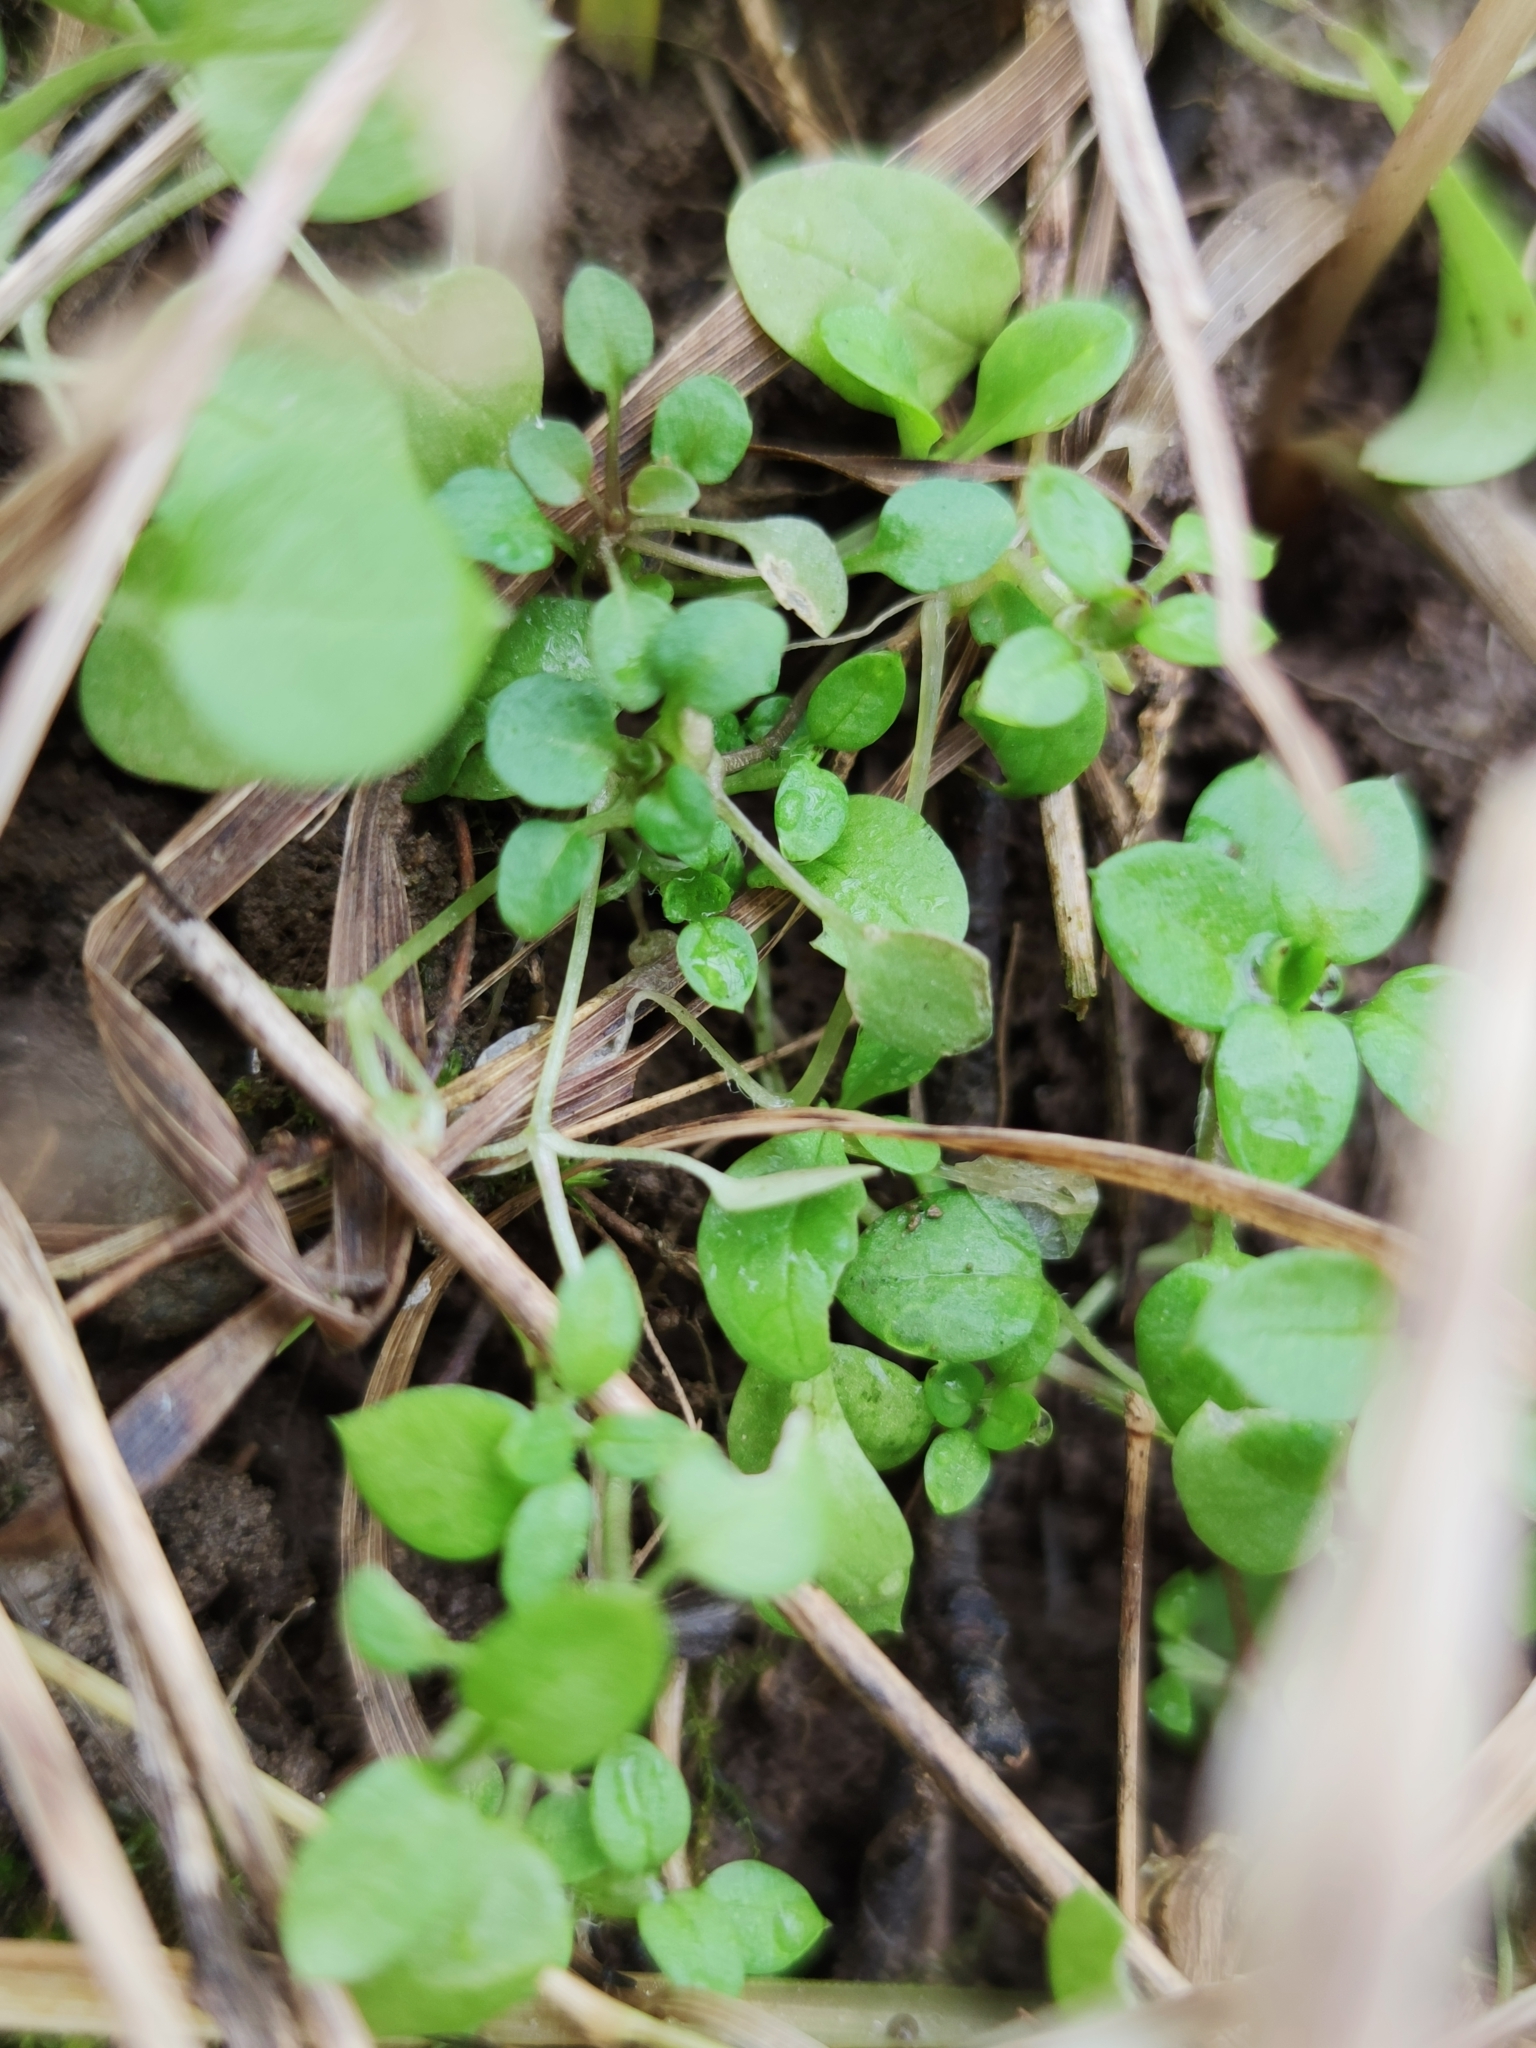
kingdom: Plantae
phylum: Tracheophyta
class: Magnoliopsida
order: Caryophyllales
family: Caryophyllaceae
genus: Stellaria
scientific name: Stellaria media
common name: Common chickweed
